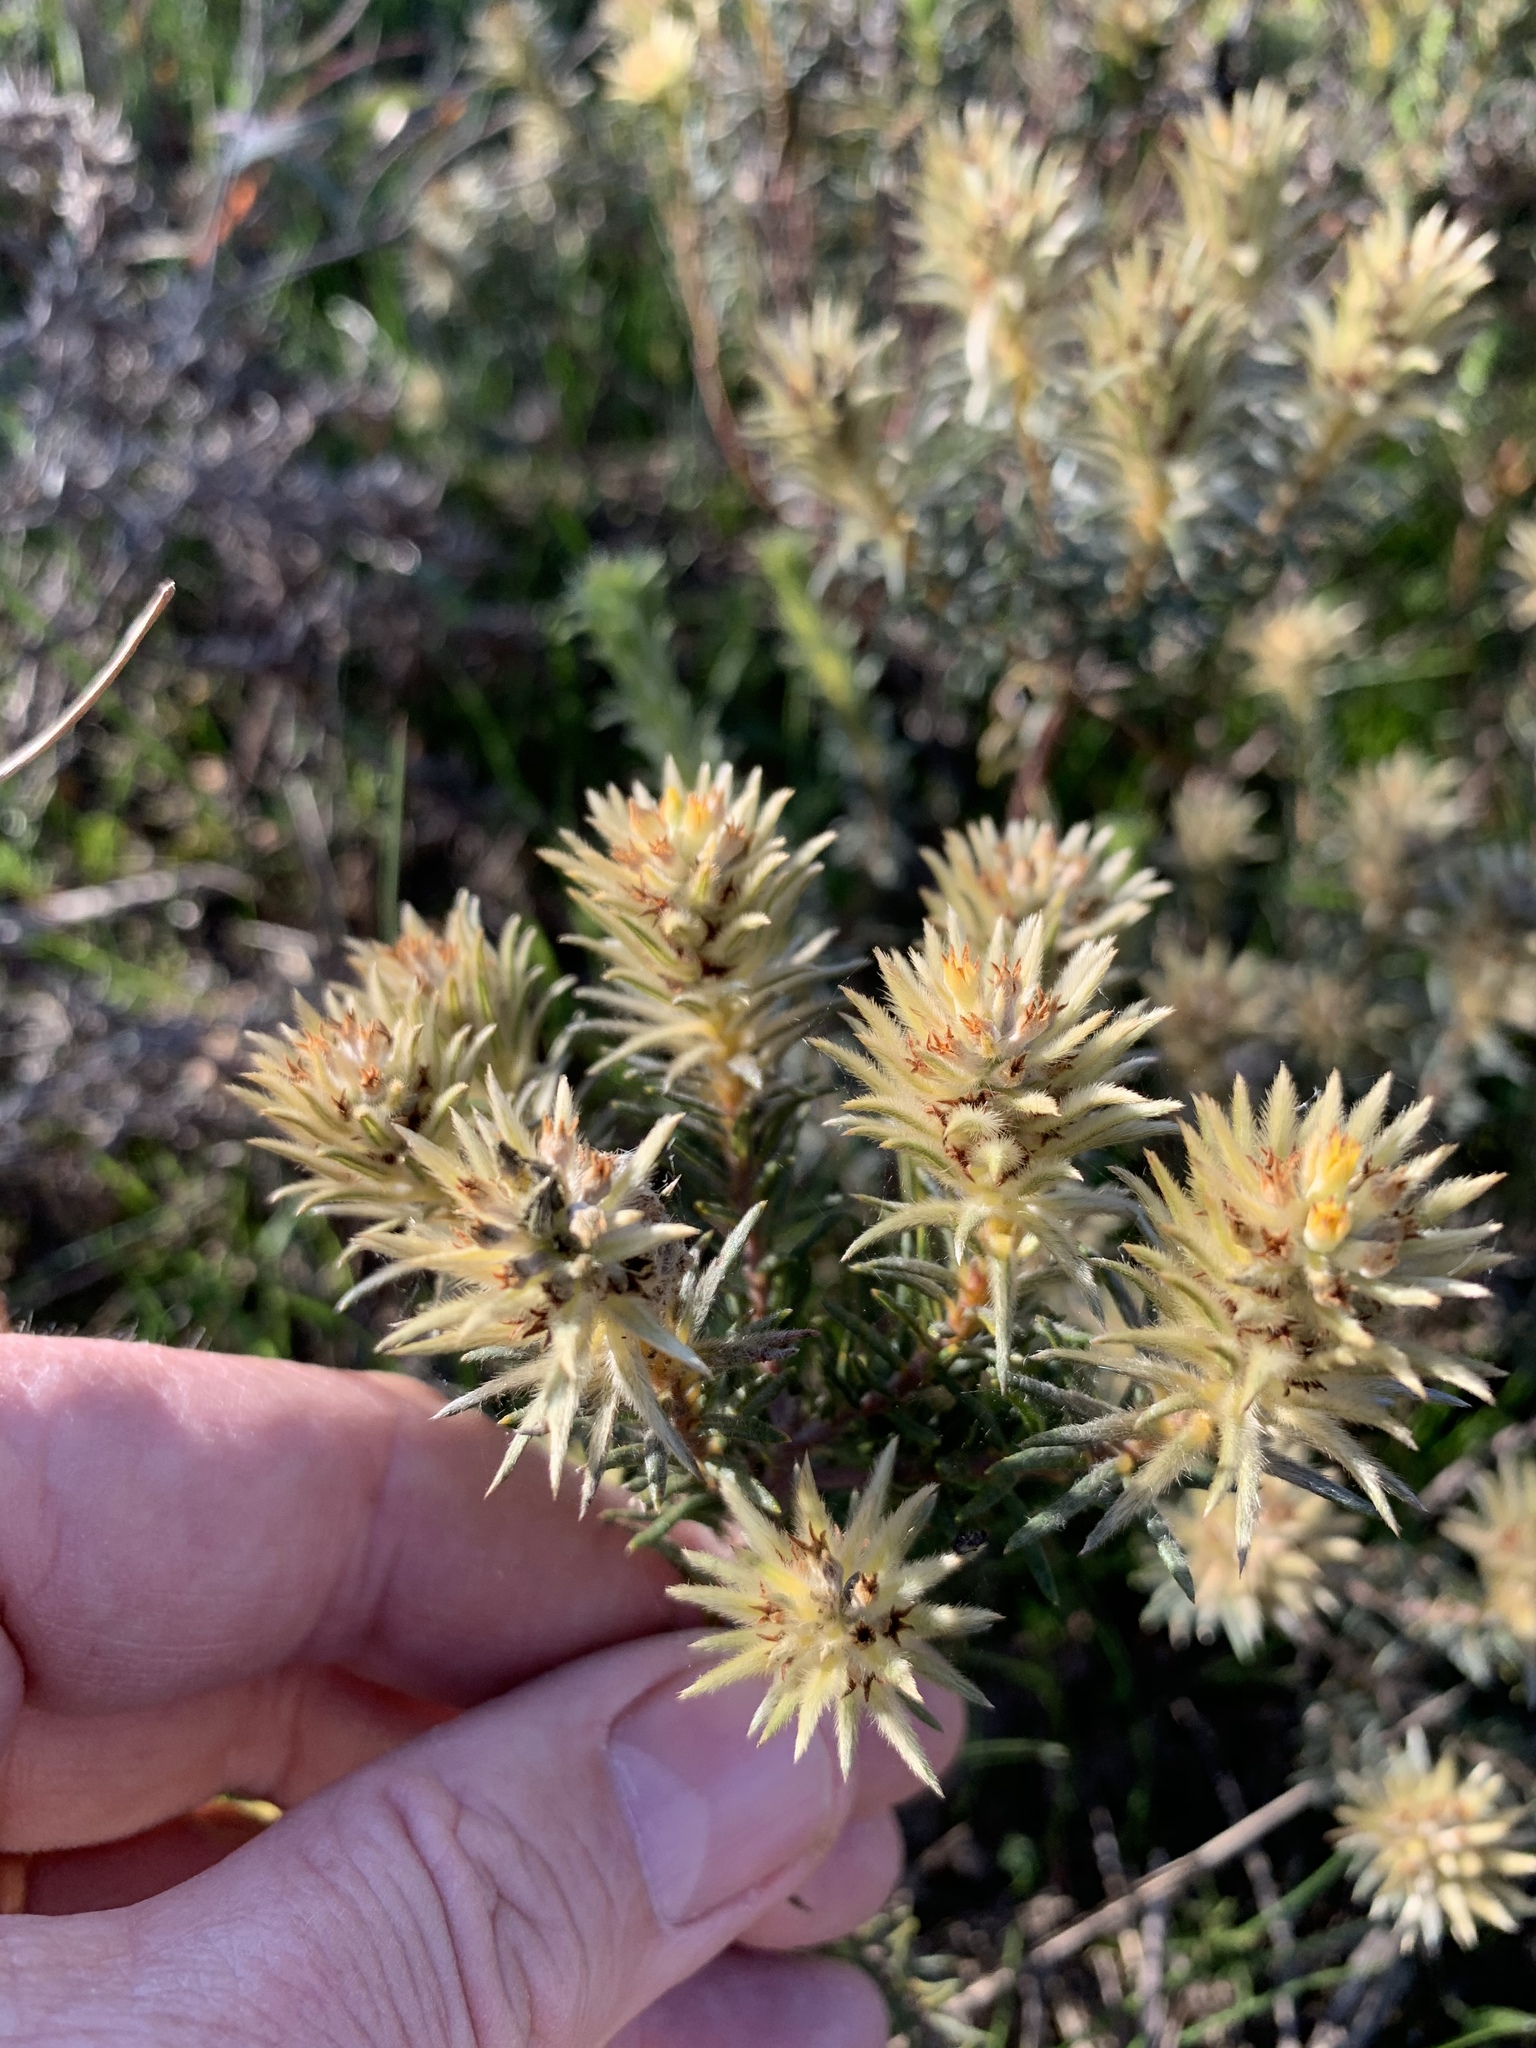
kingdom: Plantae
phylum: Tracheophyta
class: Magnoliopsida
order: Rosales
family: Rhamnaceae
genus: Phylica
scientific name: Phylica plumosa
